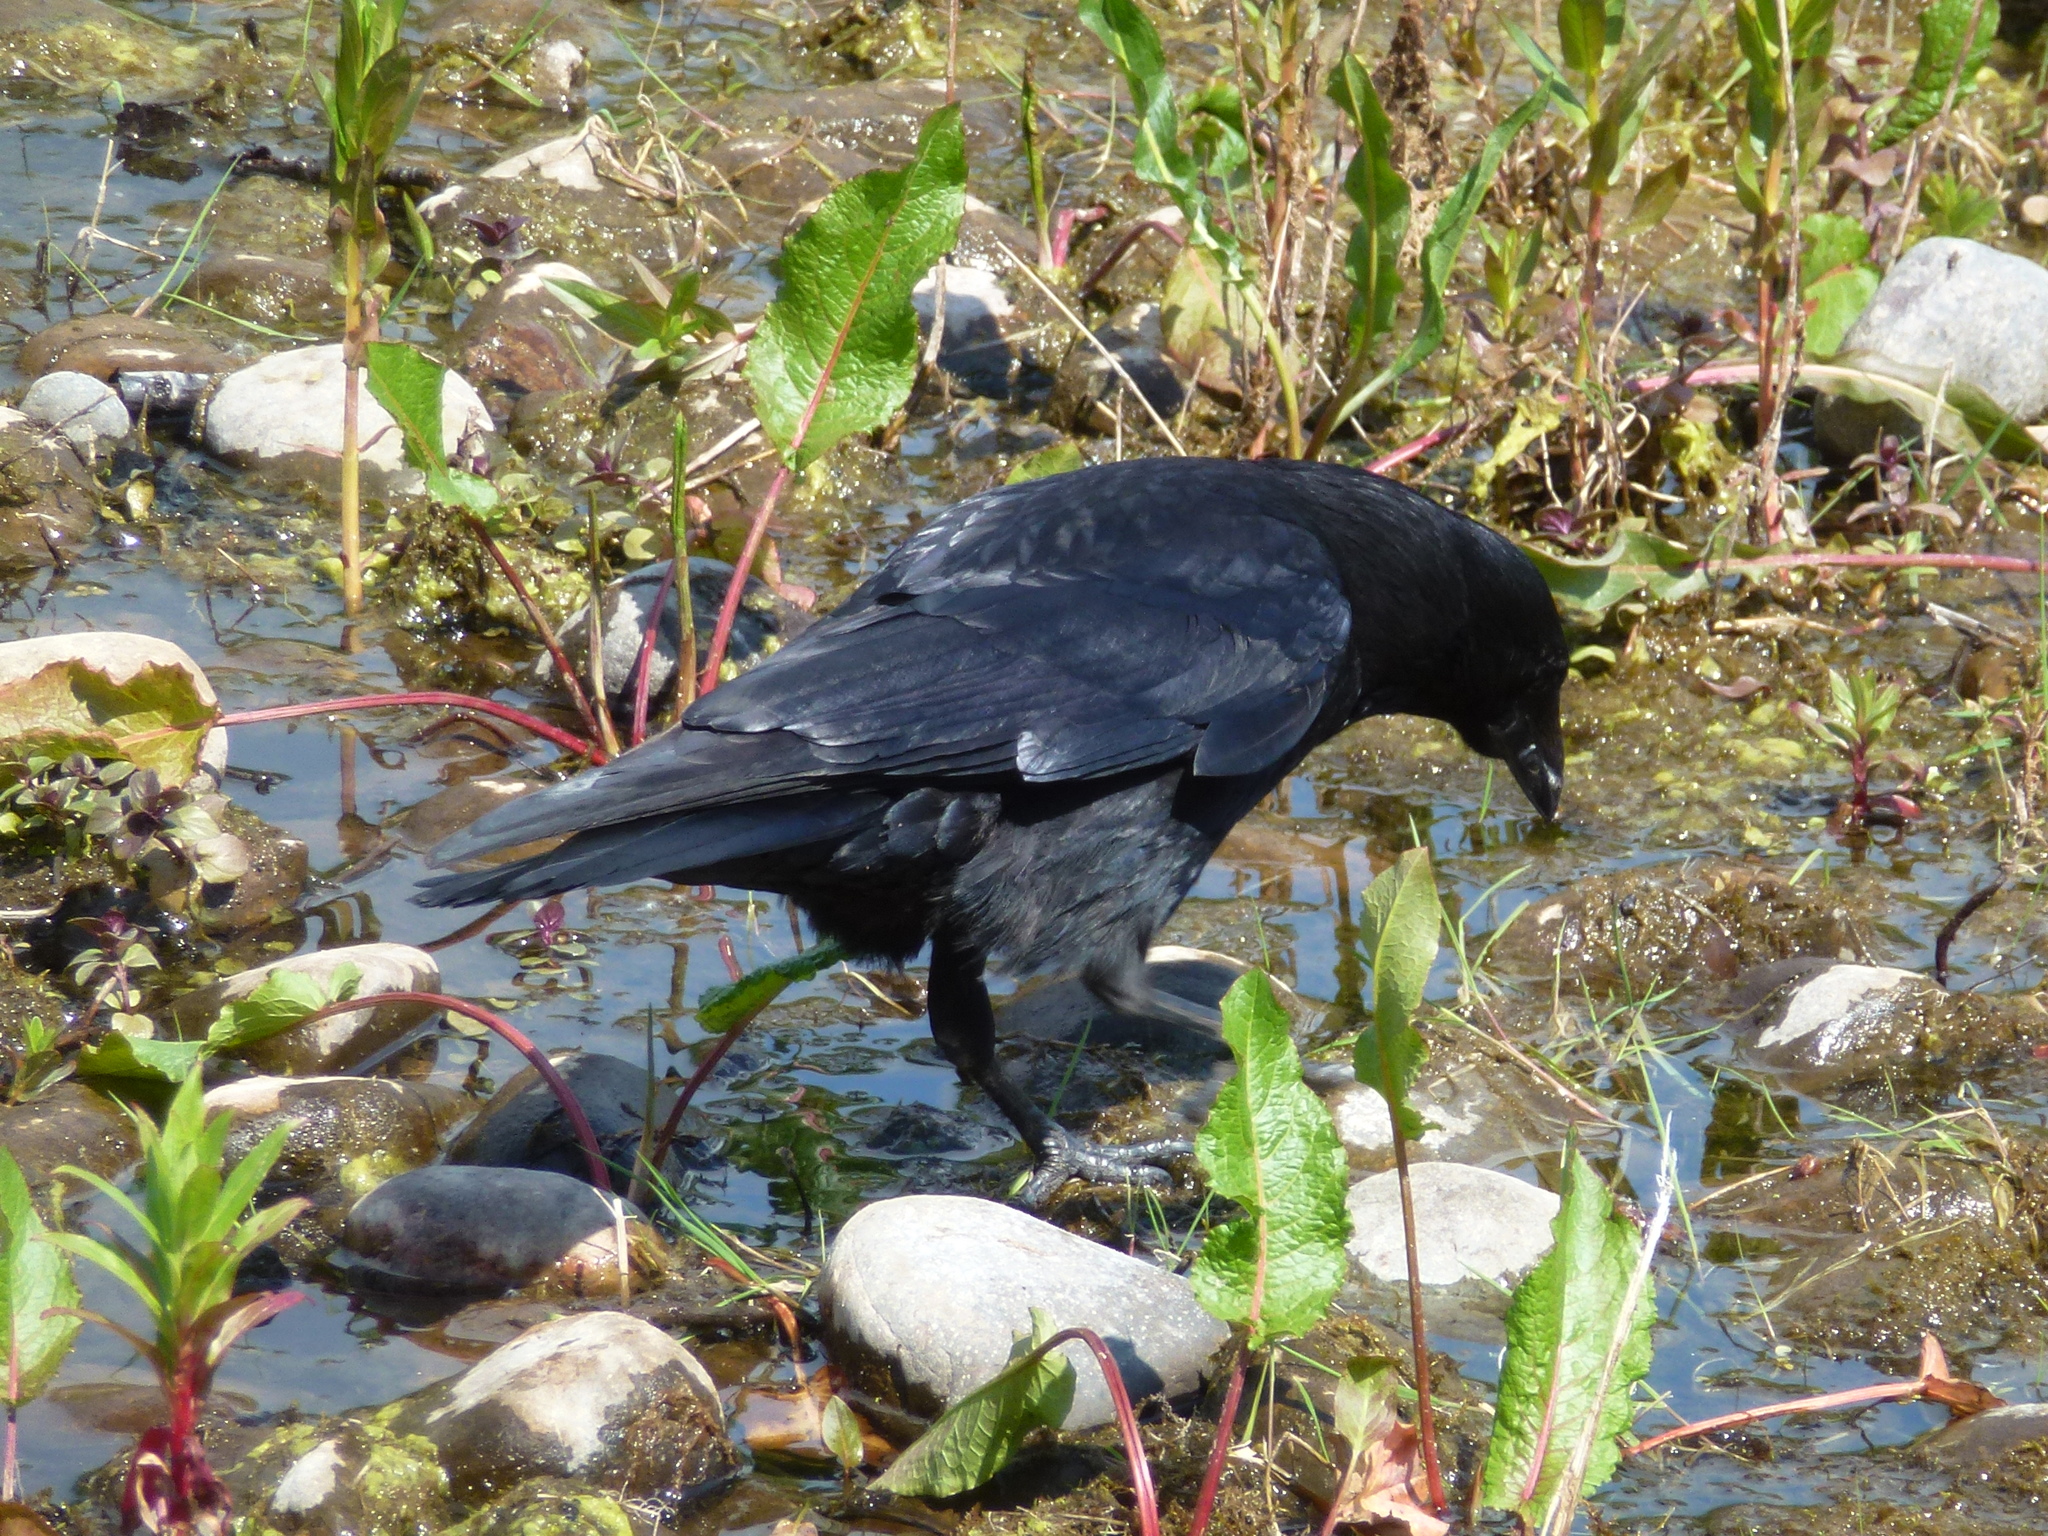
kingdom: Animalia
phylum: Chordata
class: Aves
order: Passeriformes
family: Corvidae
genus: Corvus
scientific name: Corvus corone
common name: Carrion crow
